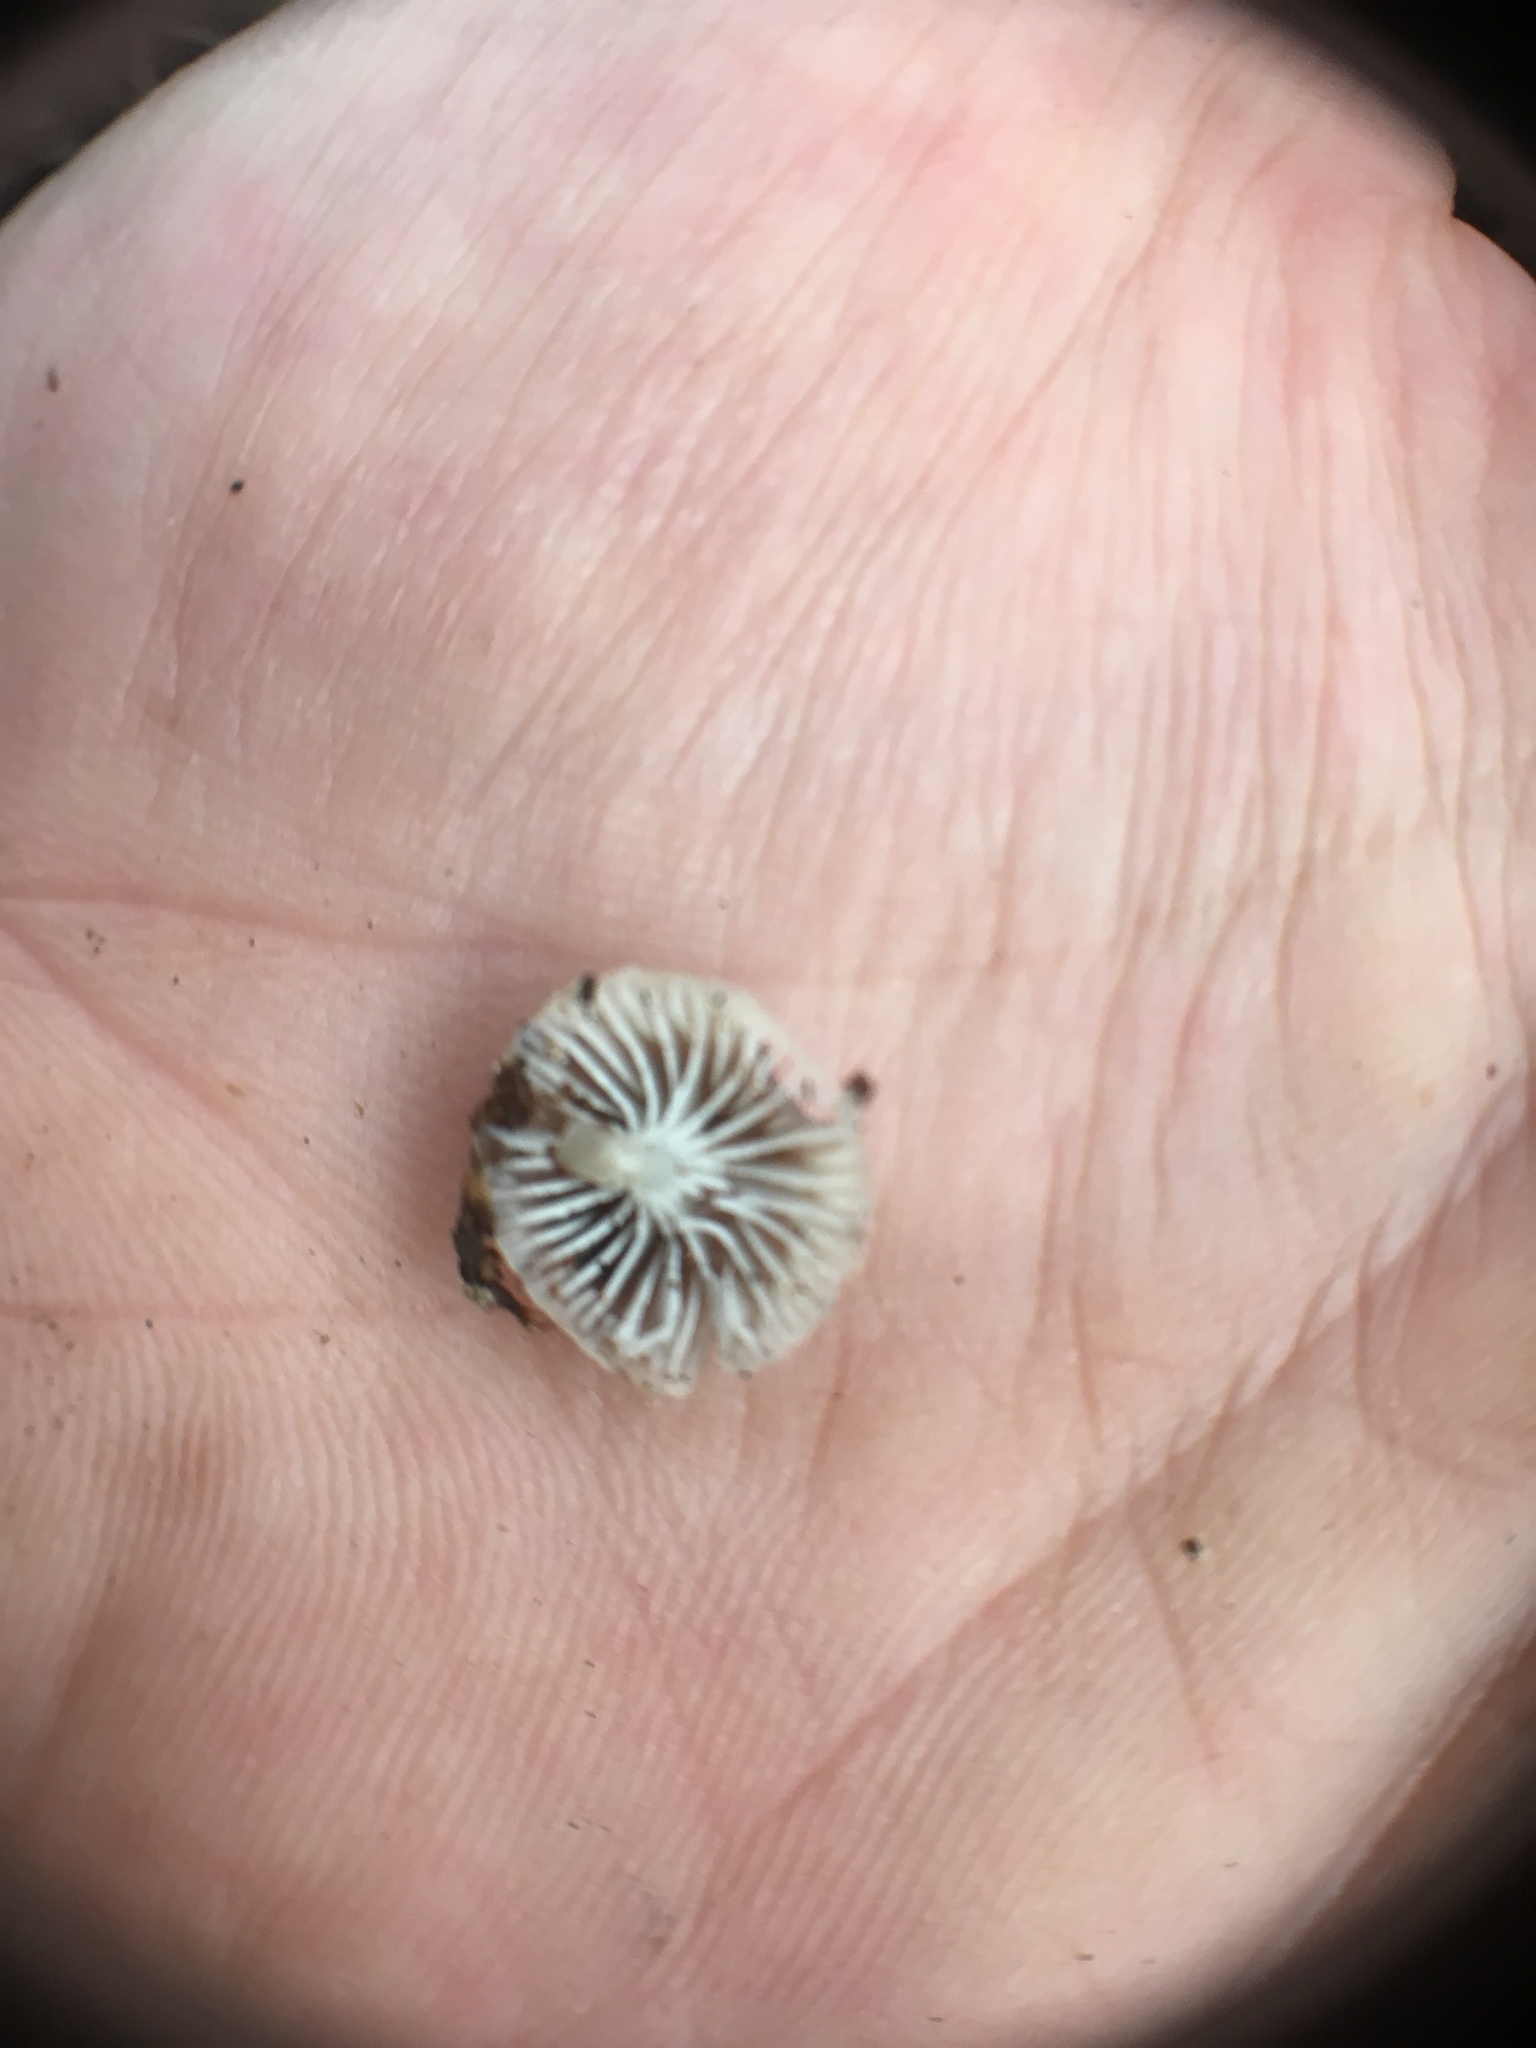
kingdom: Fungi
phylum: Basidiomycota
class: Agaricomycetes
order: Agaricales
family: Mycenaceae
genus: Roridomyces
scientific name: Roridomyces austrororidus
